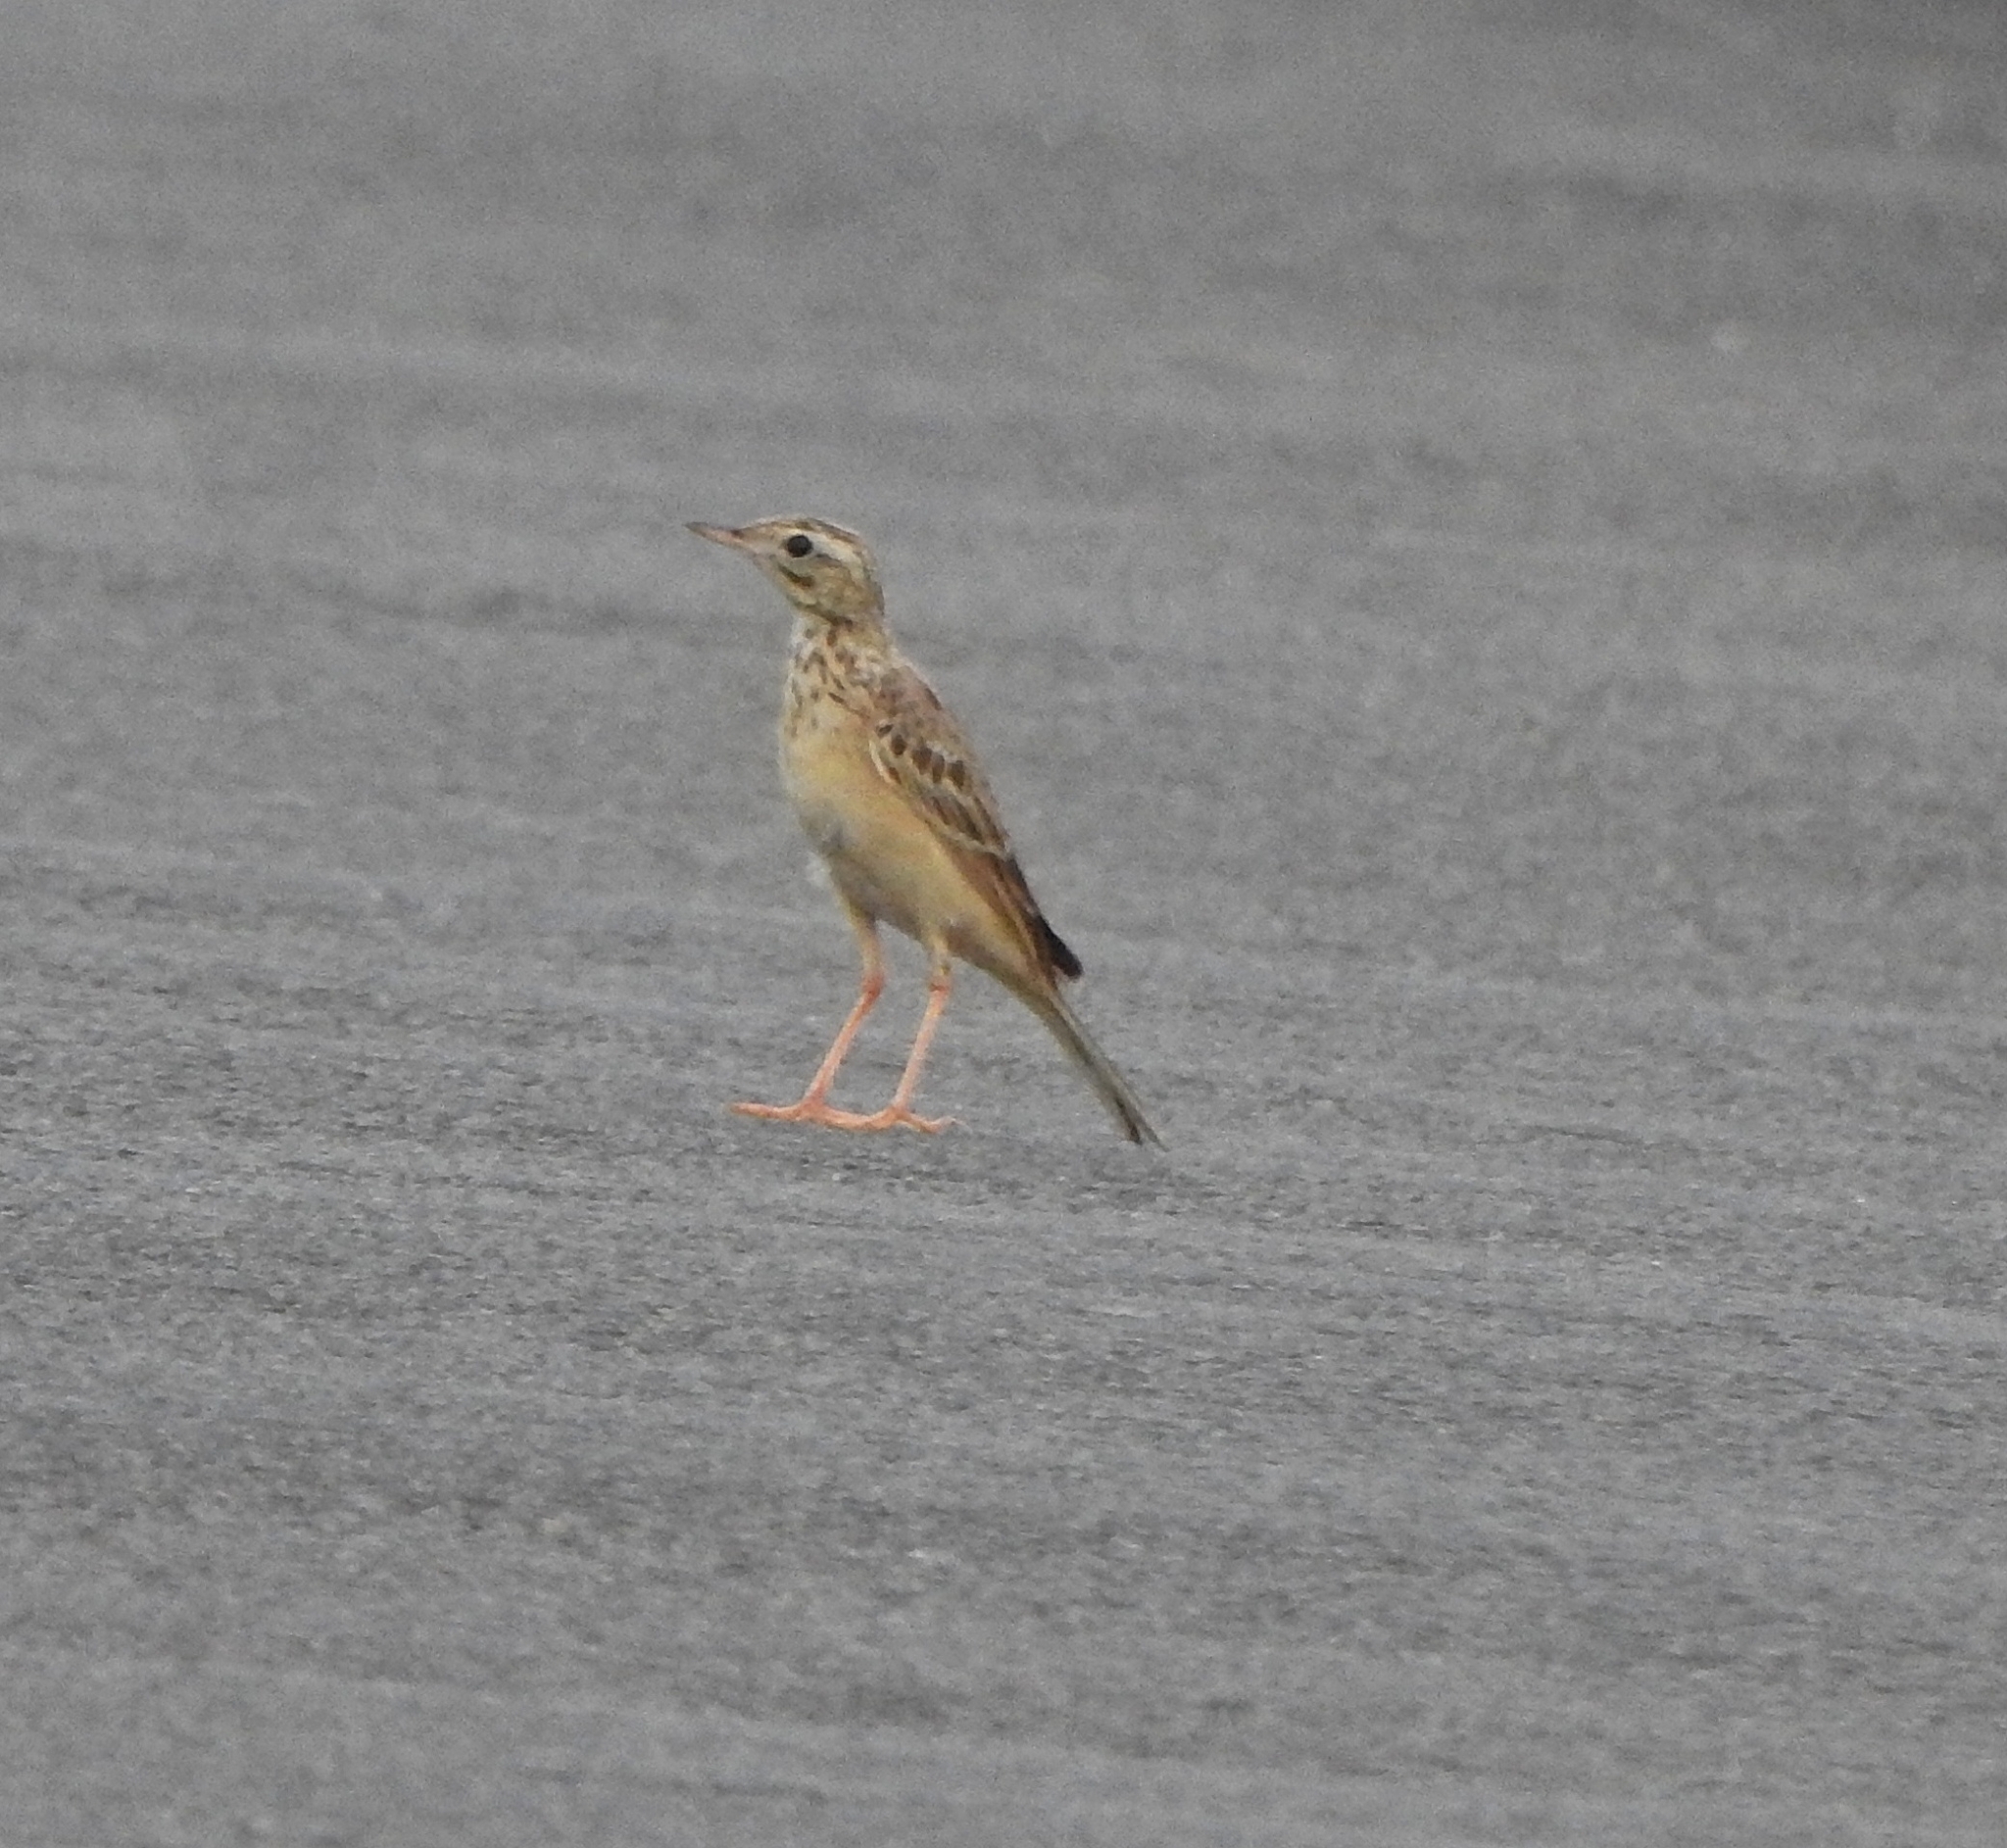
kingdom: Animalia
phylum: Chordata
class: Aves
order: Passeriformes
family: Motacillidae
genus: Anthus
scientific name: Anthus godlewskii
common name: Blyth's pipit
